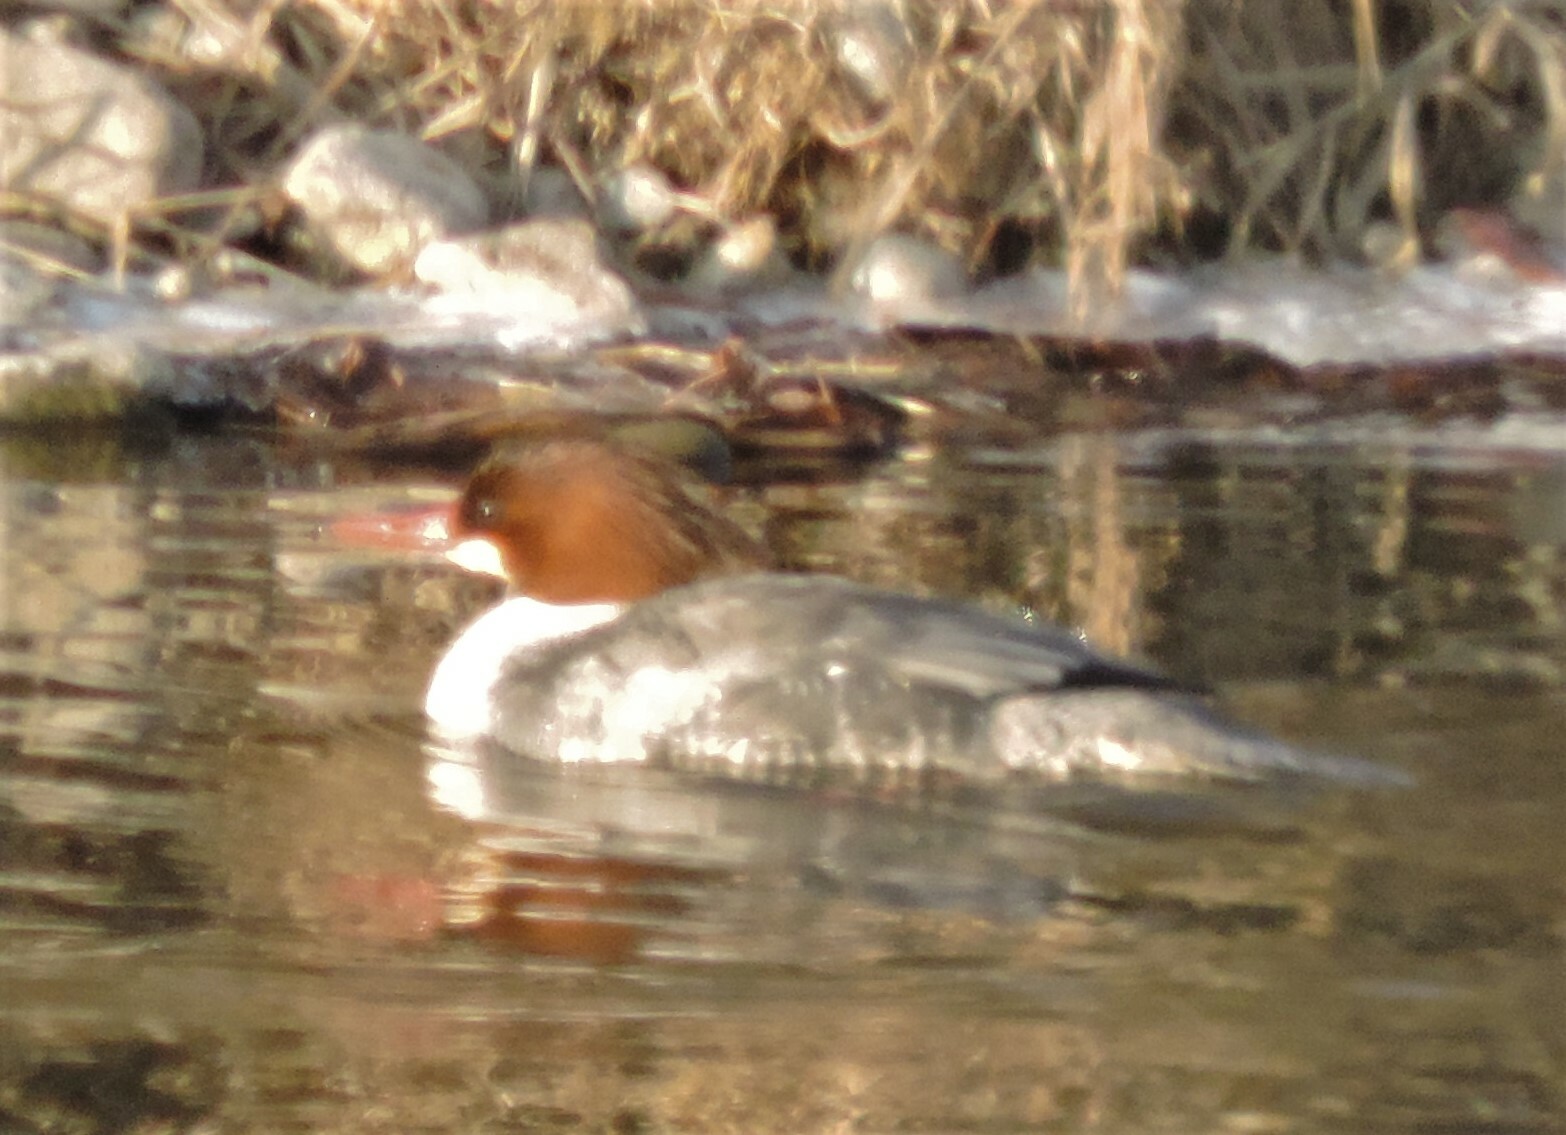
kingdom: Animalia
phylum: Chordata
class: Aves
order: Anseriformes
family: Anatidae
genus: Mergus
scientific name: Mergus merganser
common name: Common merganser
